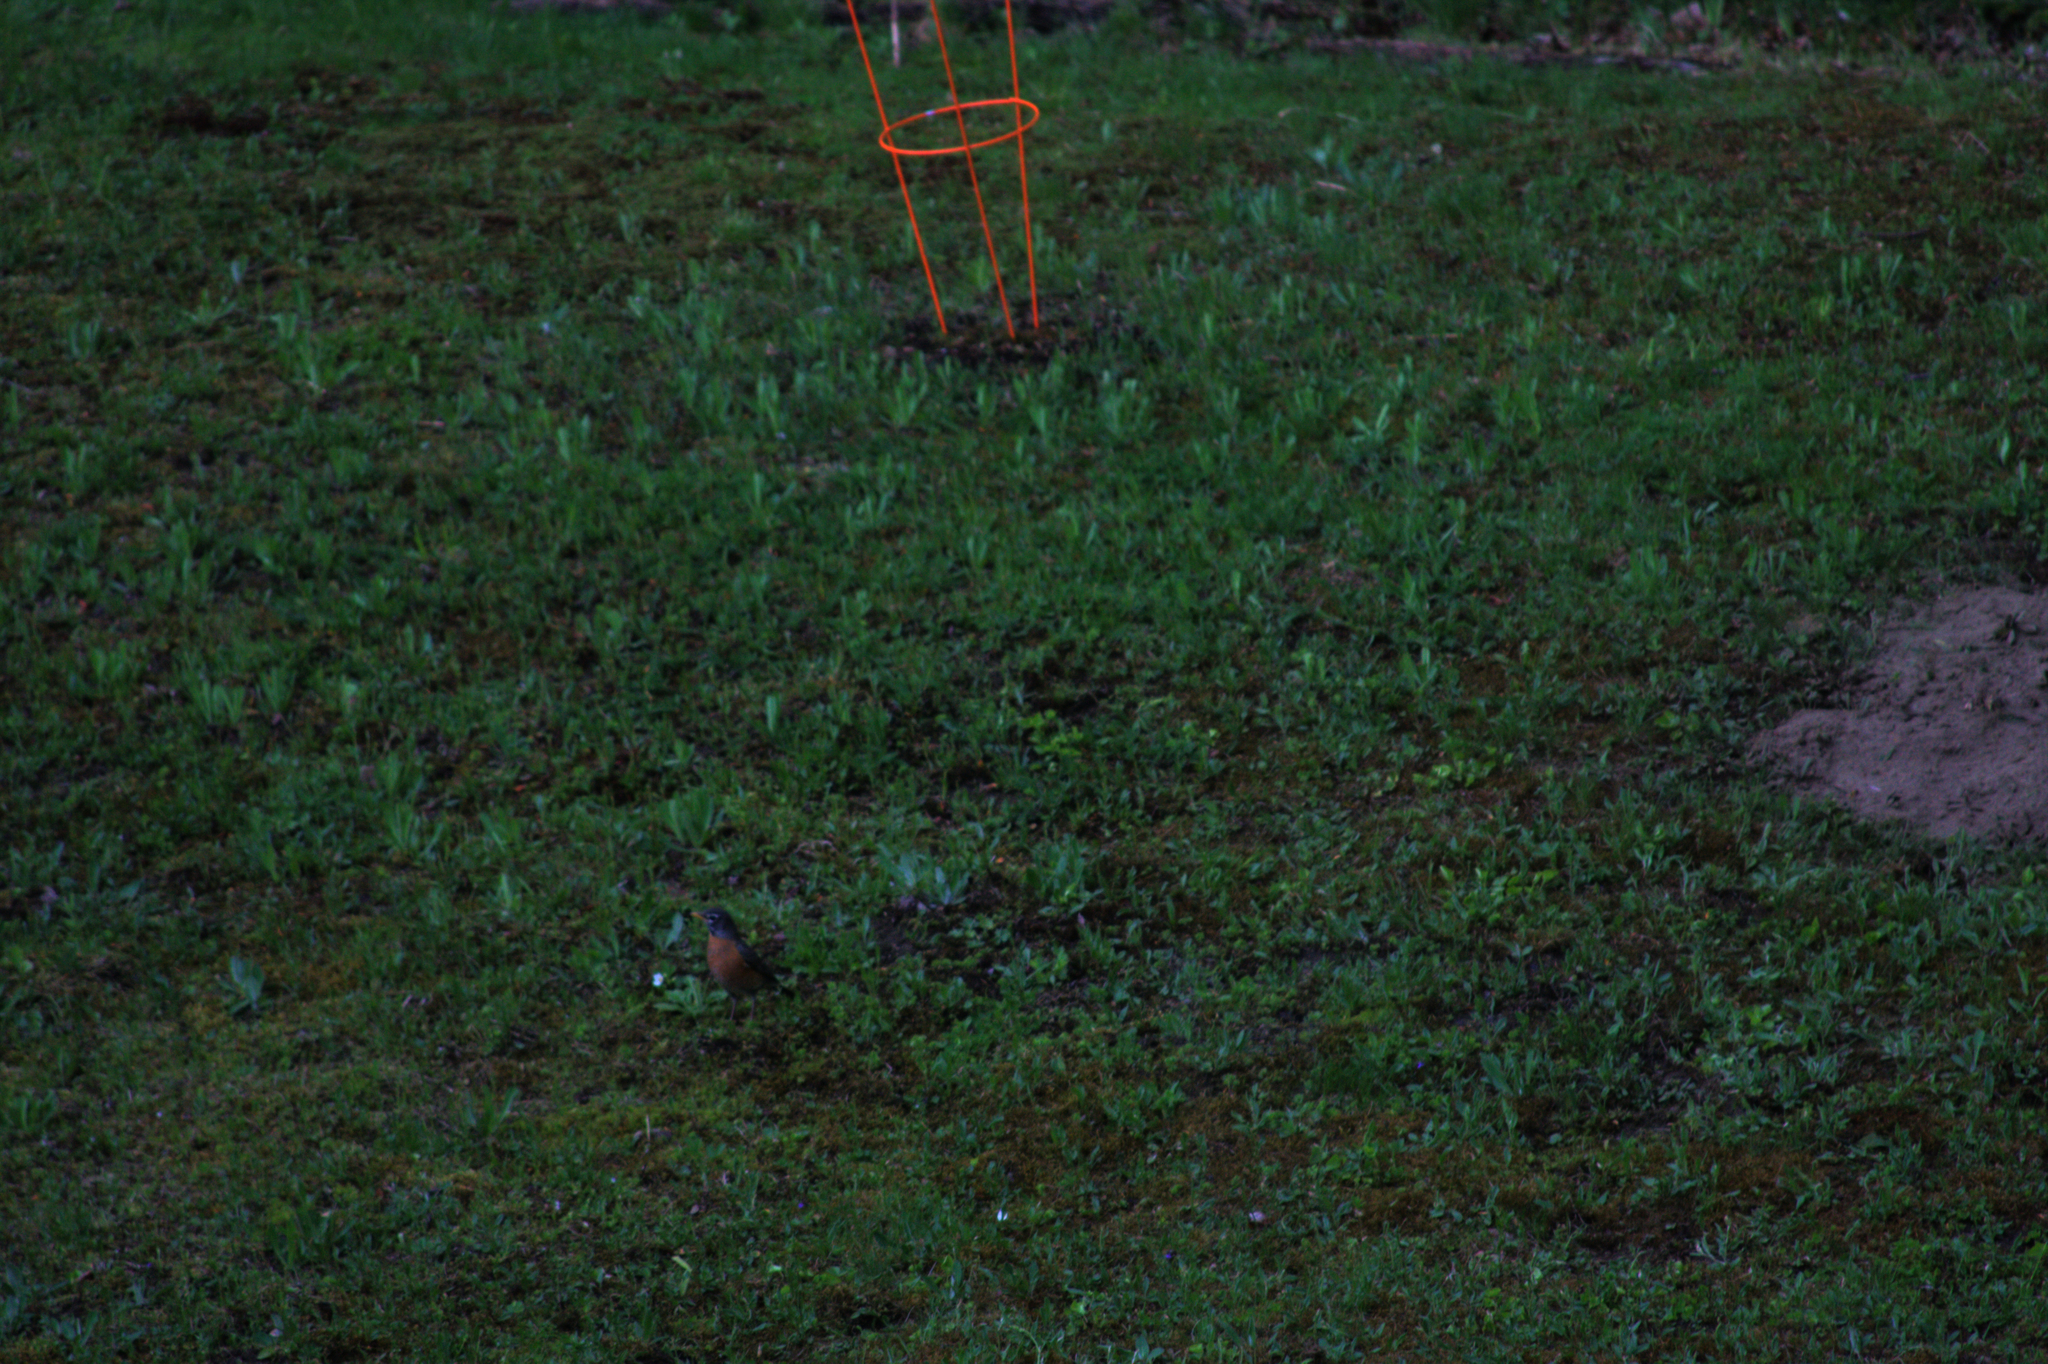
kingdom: Animalia
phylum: Chordata
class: Aves
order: Passeriformes
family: Turdidae
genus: Turdus
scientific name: Turdus migratorius
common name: American robin
